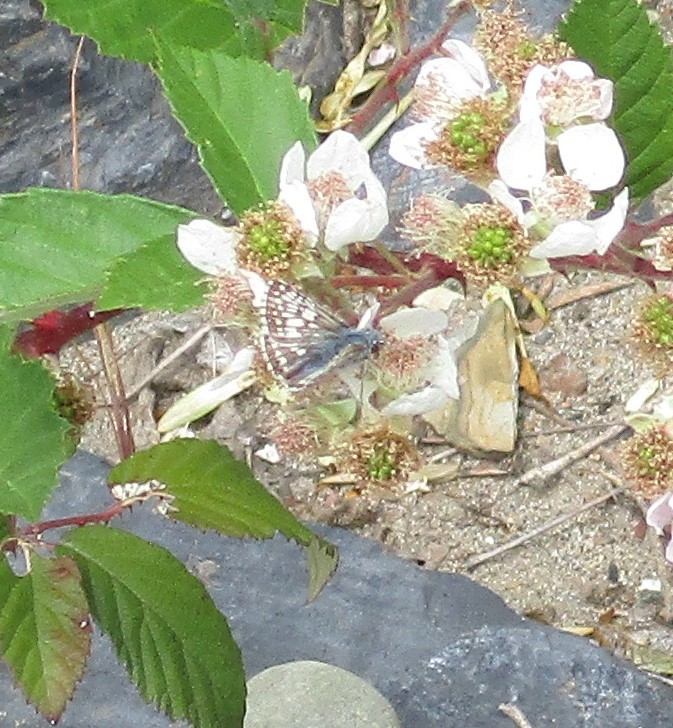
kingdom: Animalia
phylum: Arthropoda
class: Insecta
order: Lepidoptera
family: Hesperiidae
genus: Burnsius
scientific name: Burnsius communis
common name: Common checkered-skipper
